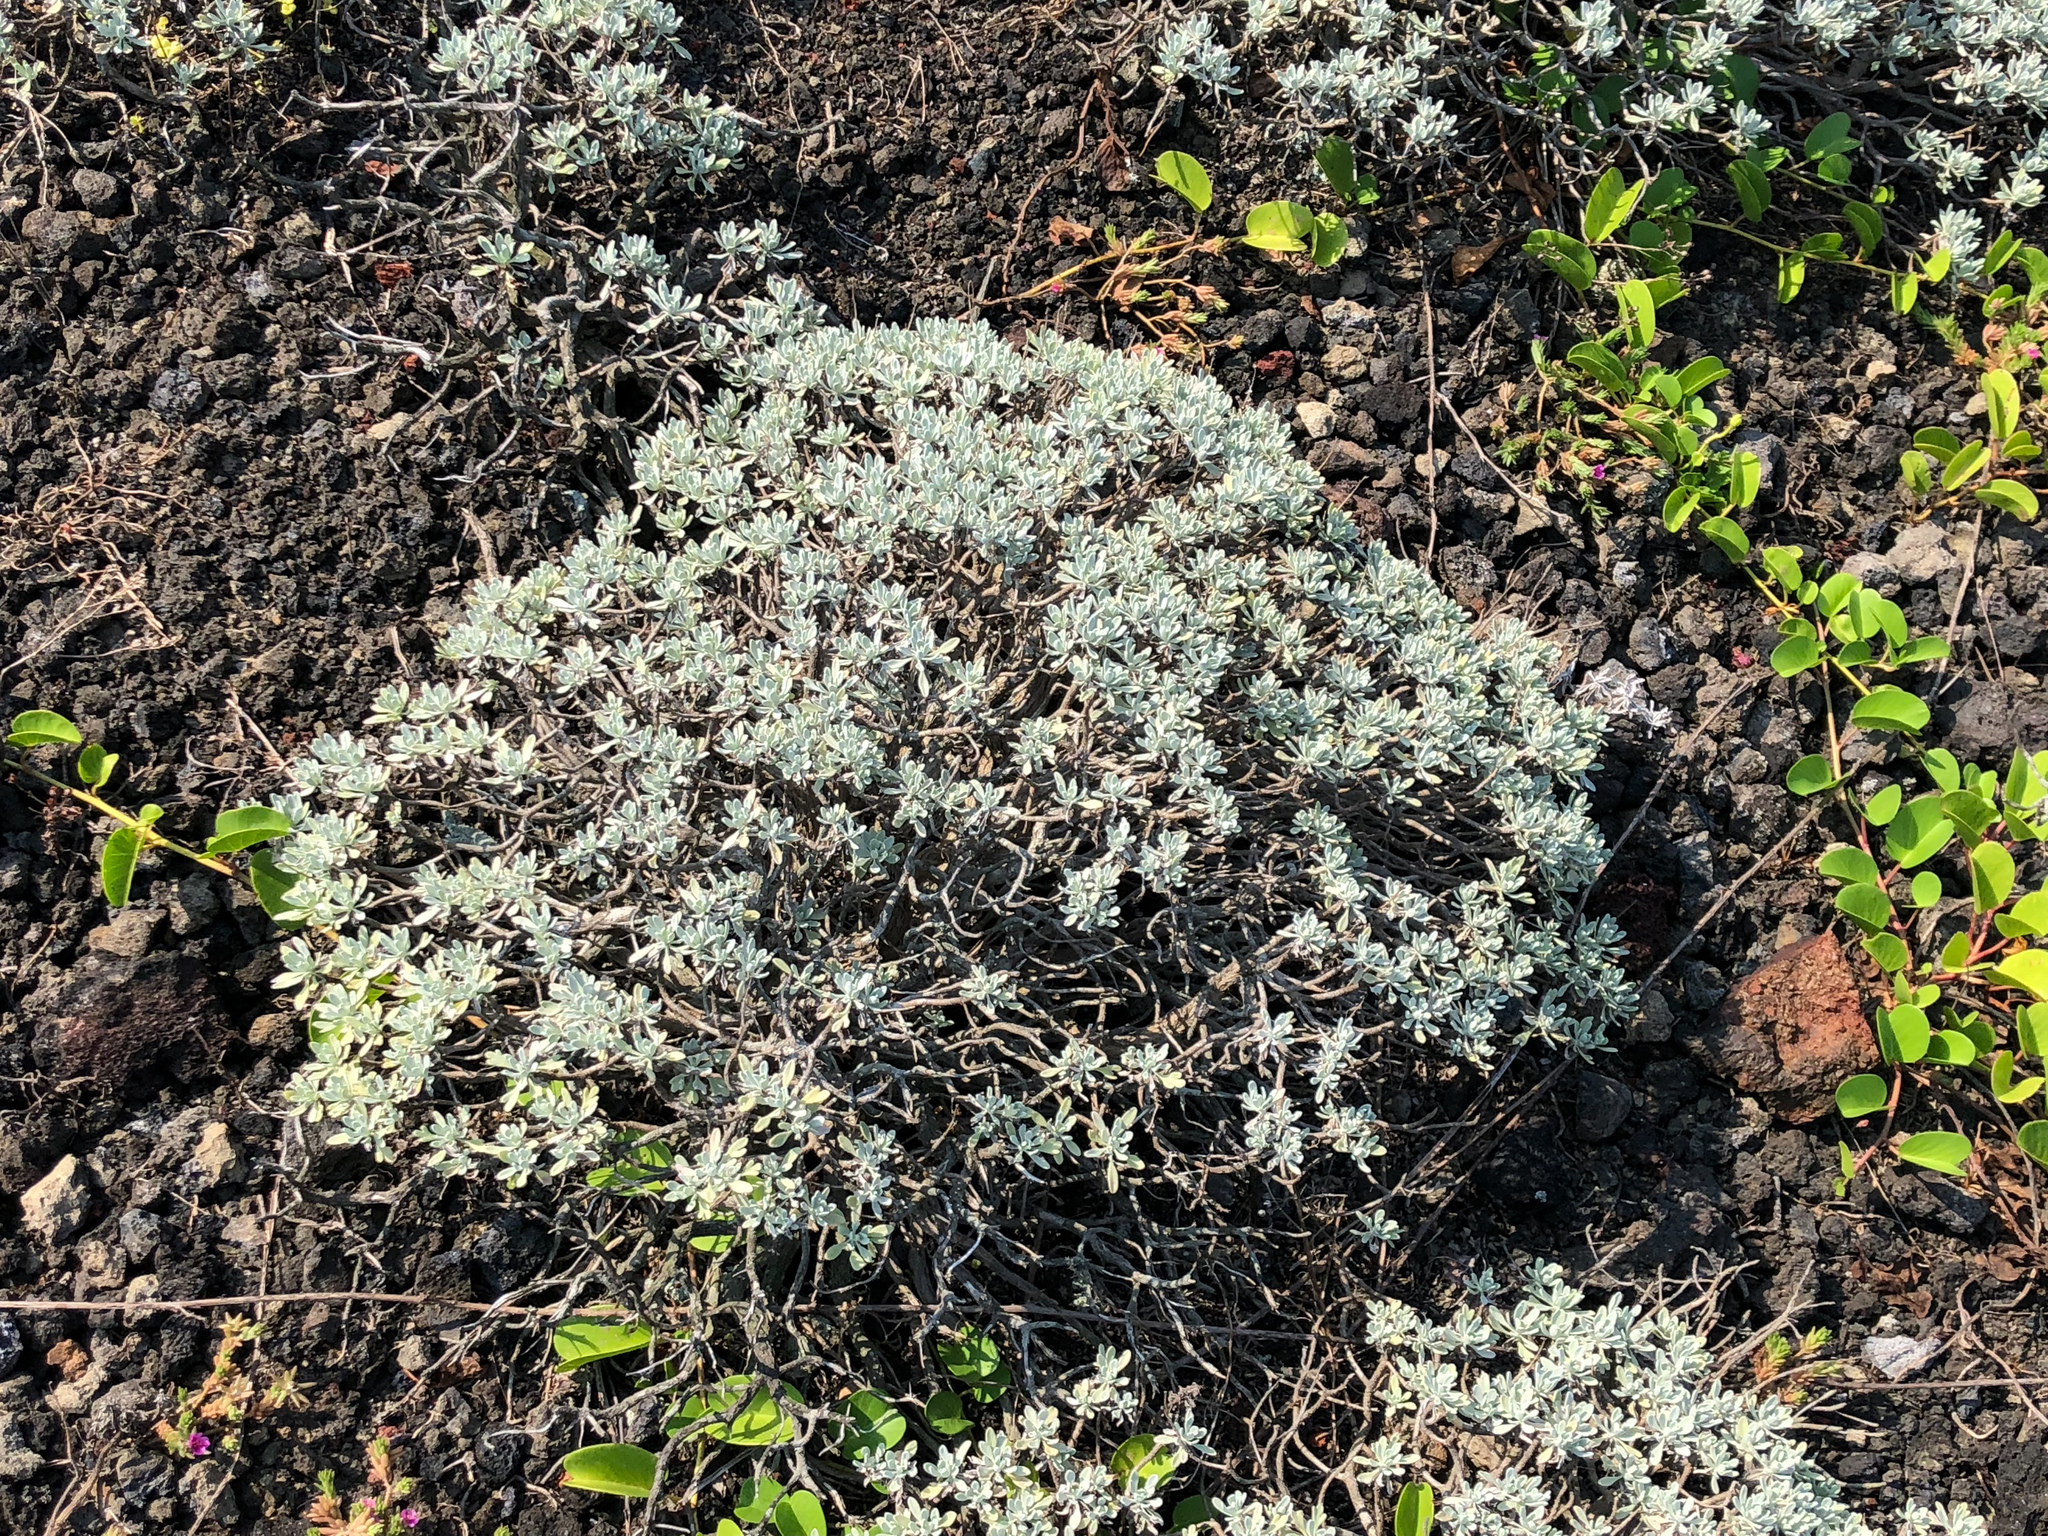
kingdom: Plantae
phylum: Tracheophyta
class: Magnoliopsida
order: Asterales
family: Asteraceae
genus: Crossostephium
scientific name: Crossostephium chinense
